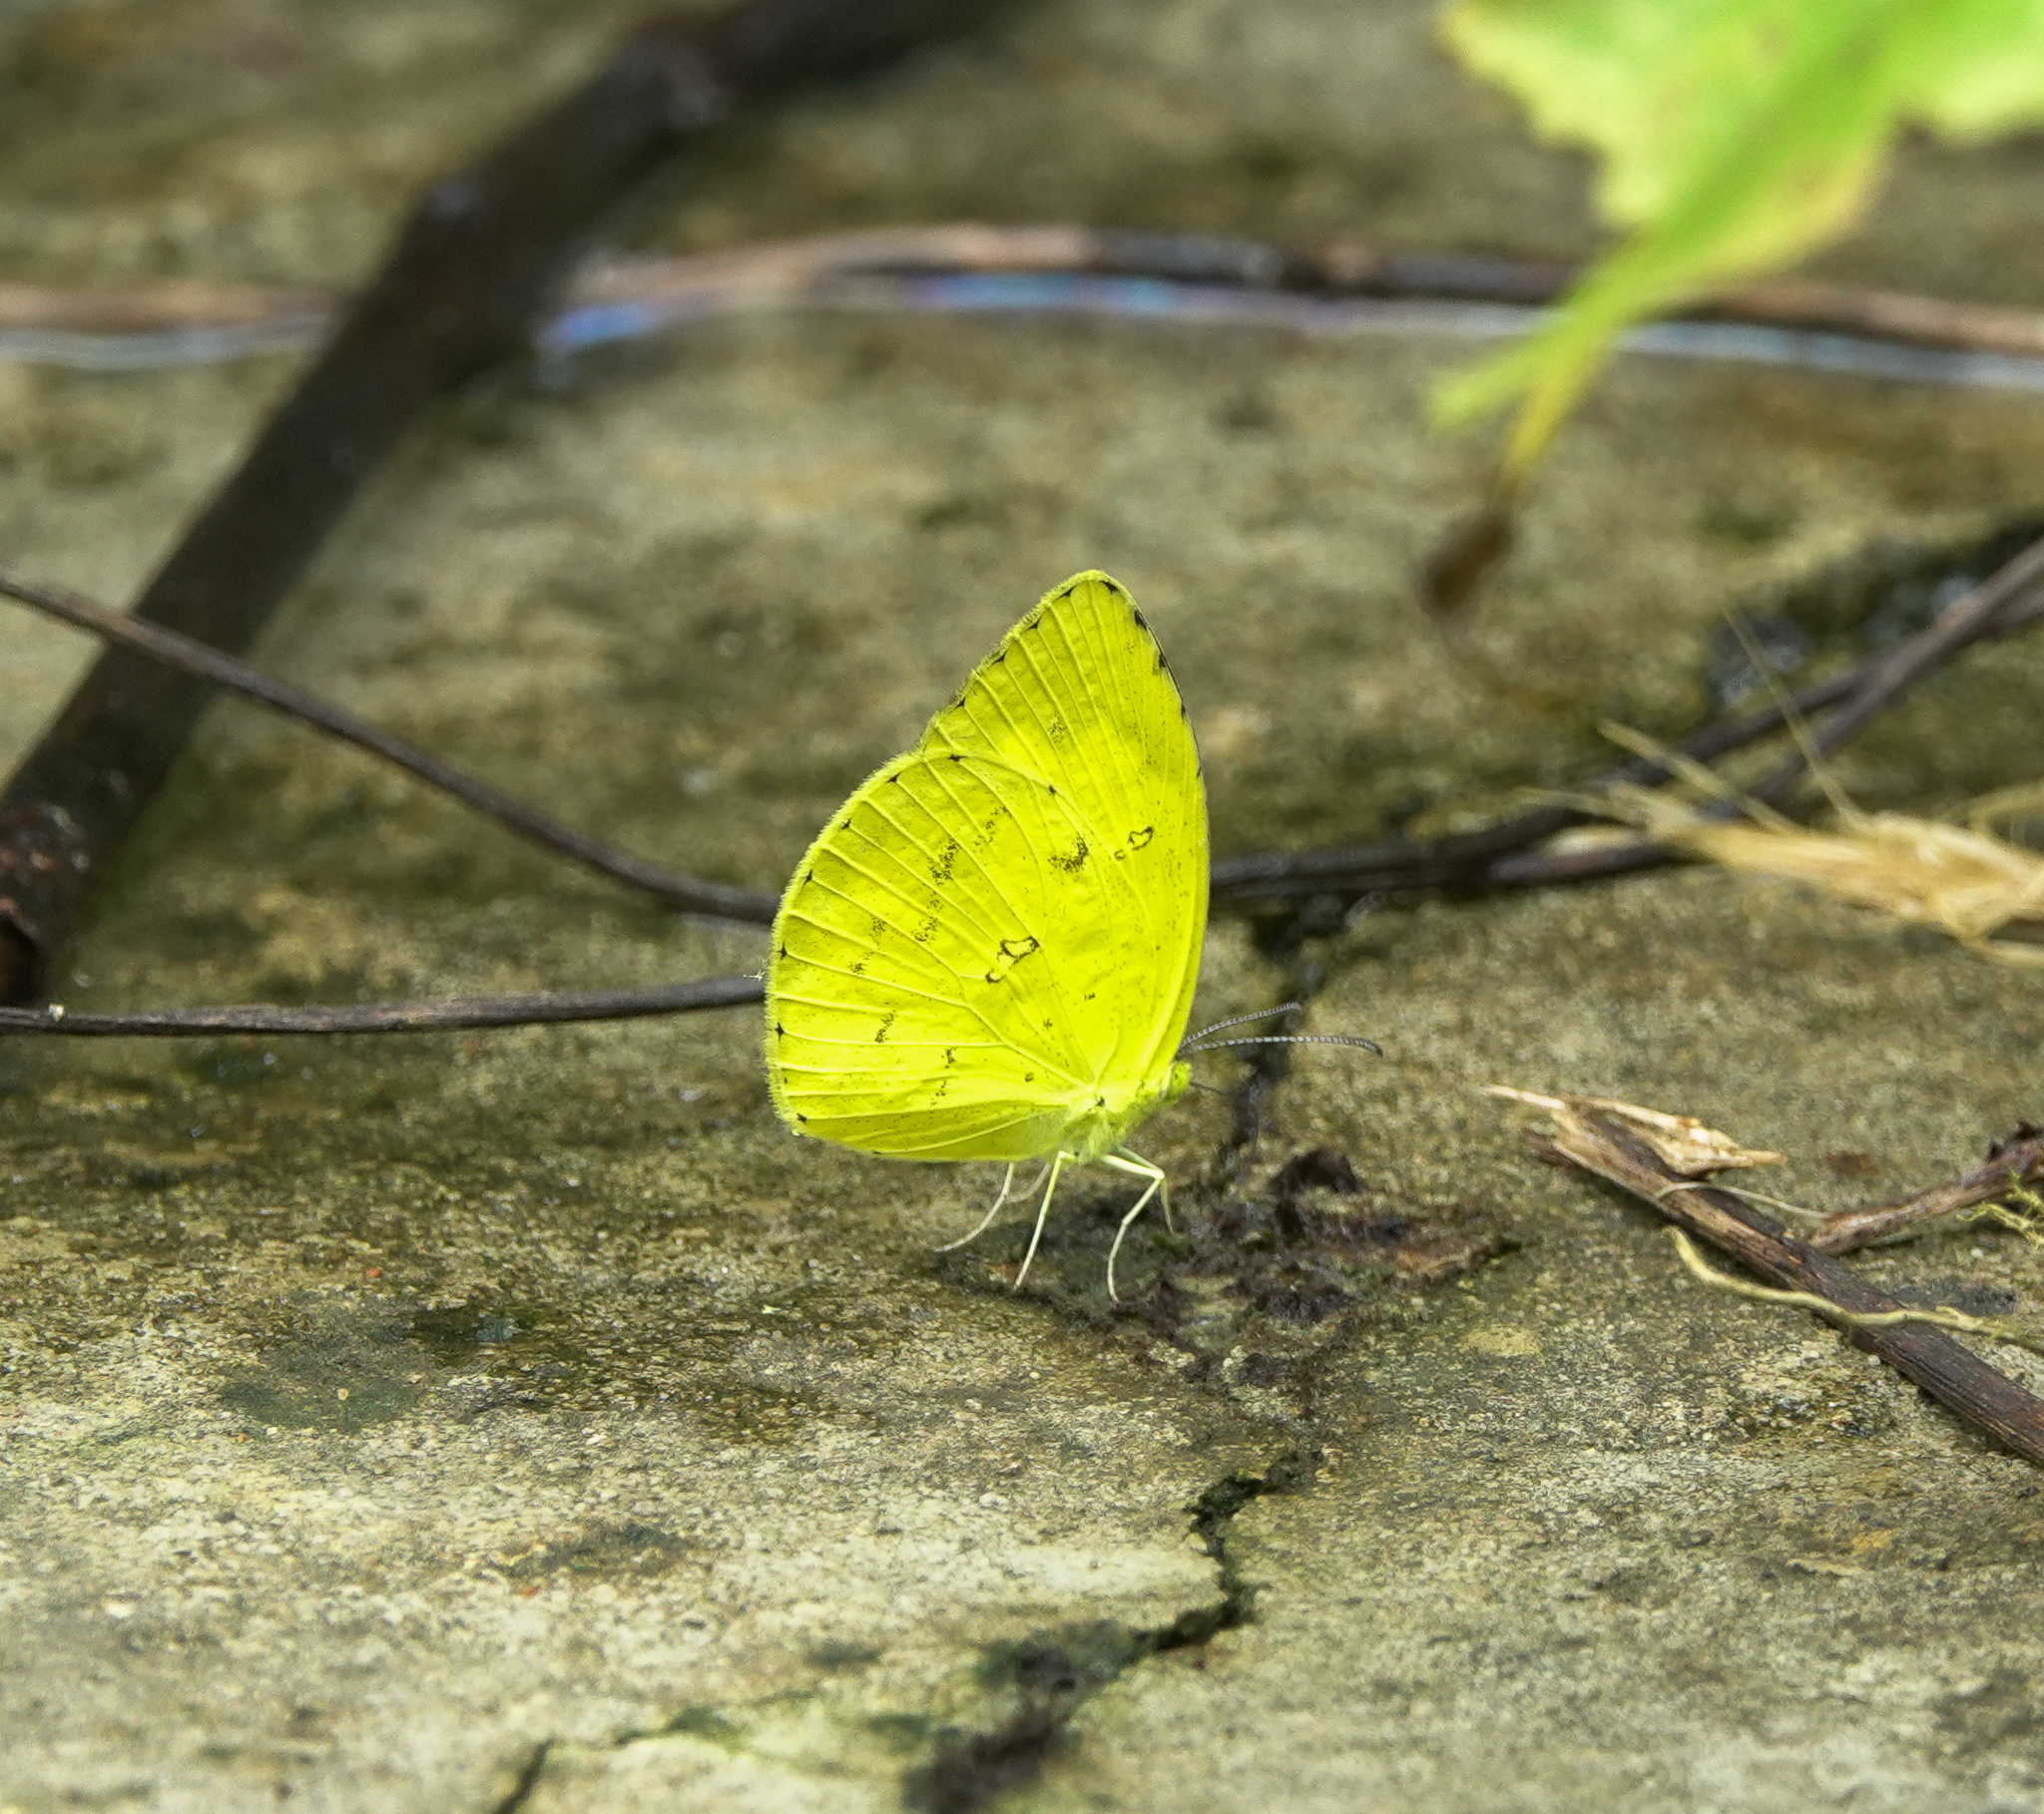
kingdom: Animalia
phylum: Arthropoda
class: Insecta
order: Lepidoptera
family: Pieridae
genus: Eurema
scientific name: Eurema hecabe
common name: Pale grass yellow
